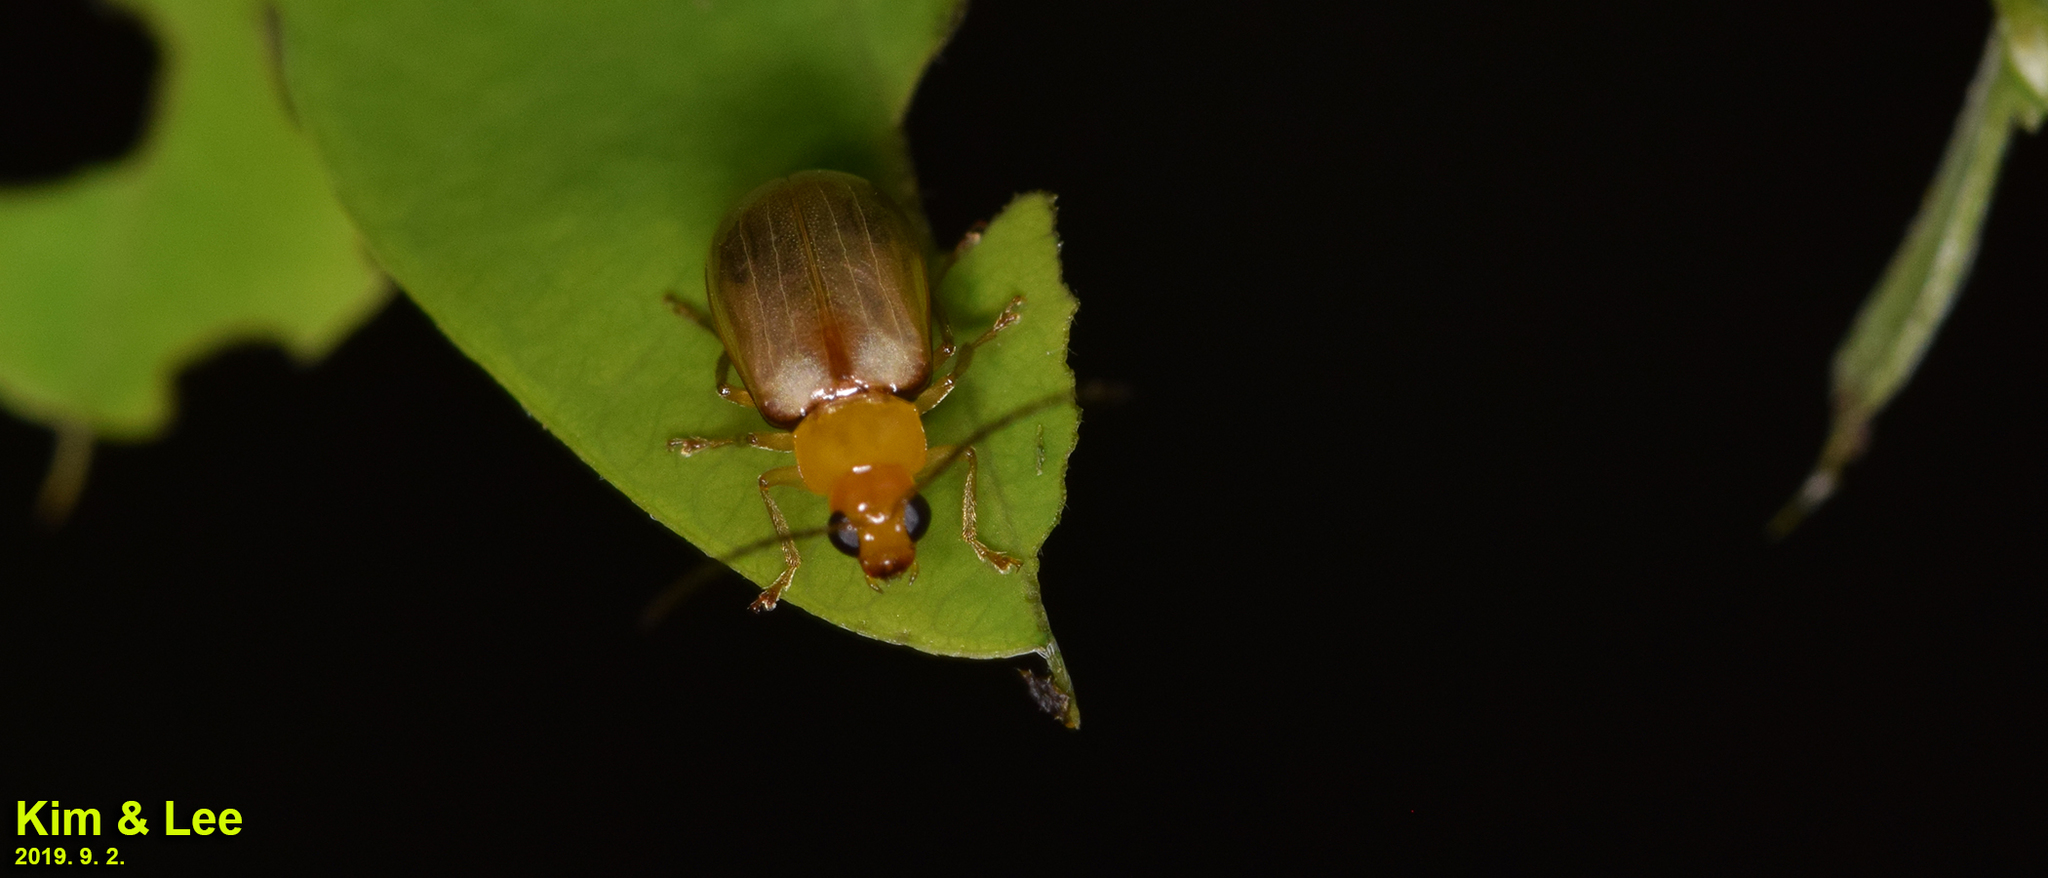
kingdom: Animalia
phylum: Arthropoda
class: Insecta
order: Coleoptera
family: Chrysomelidae
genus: Monolepta
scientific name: Monolepta shirozui
